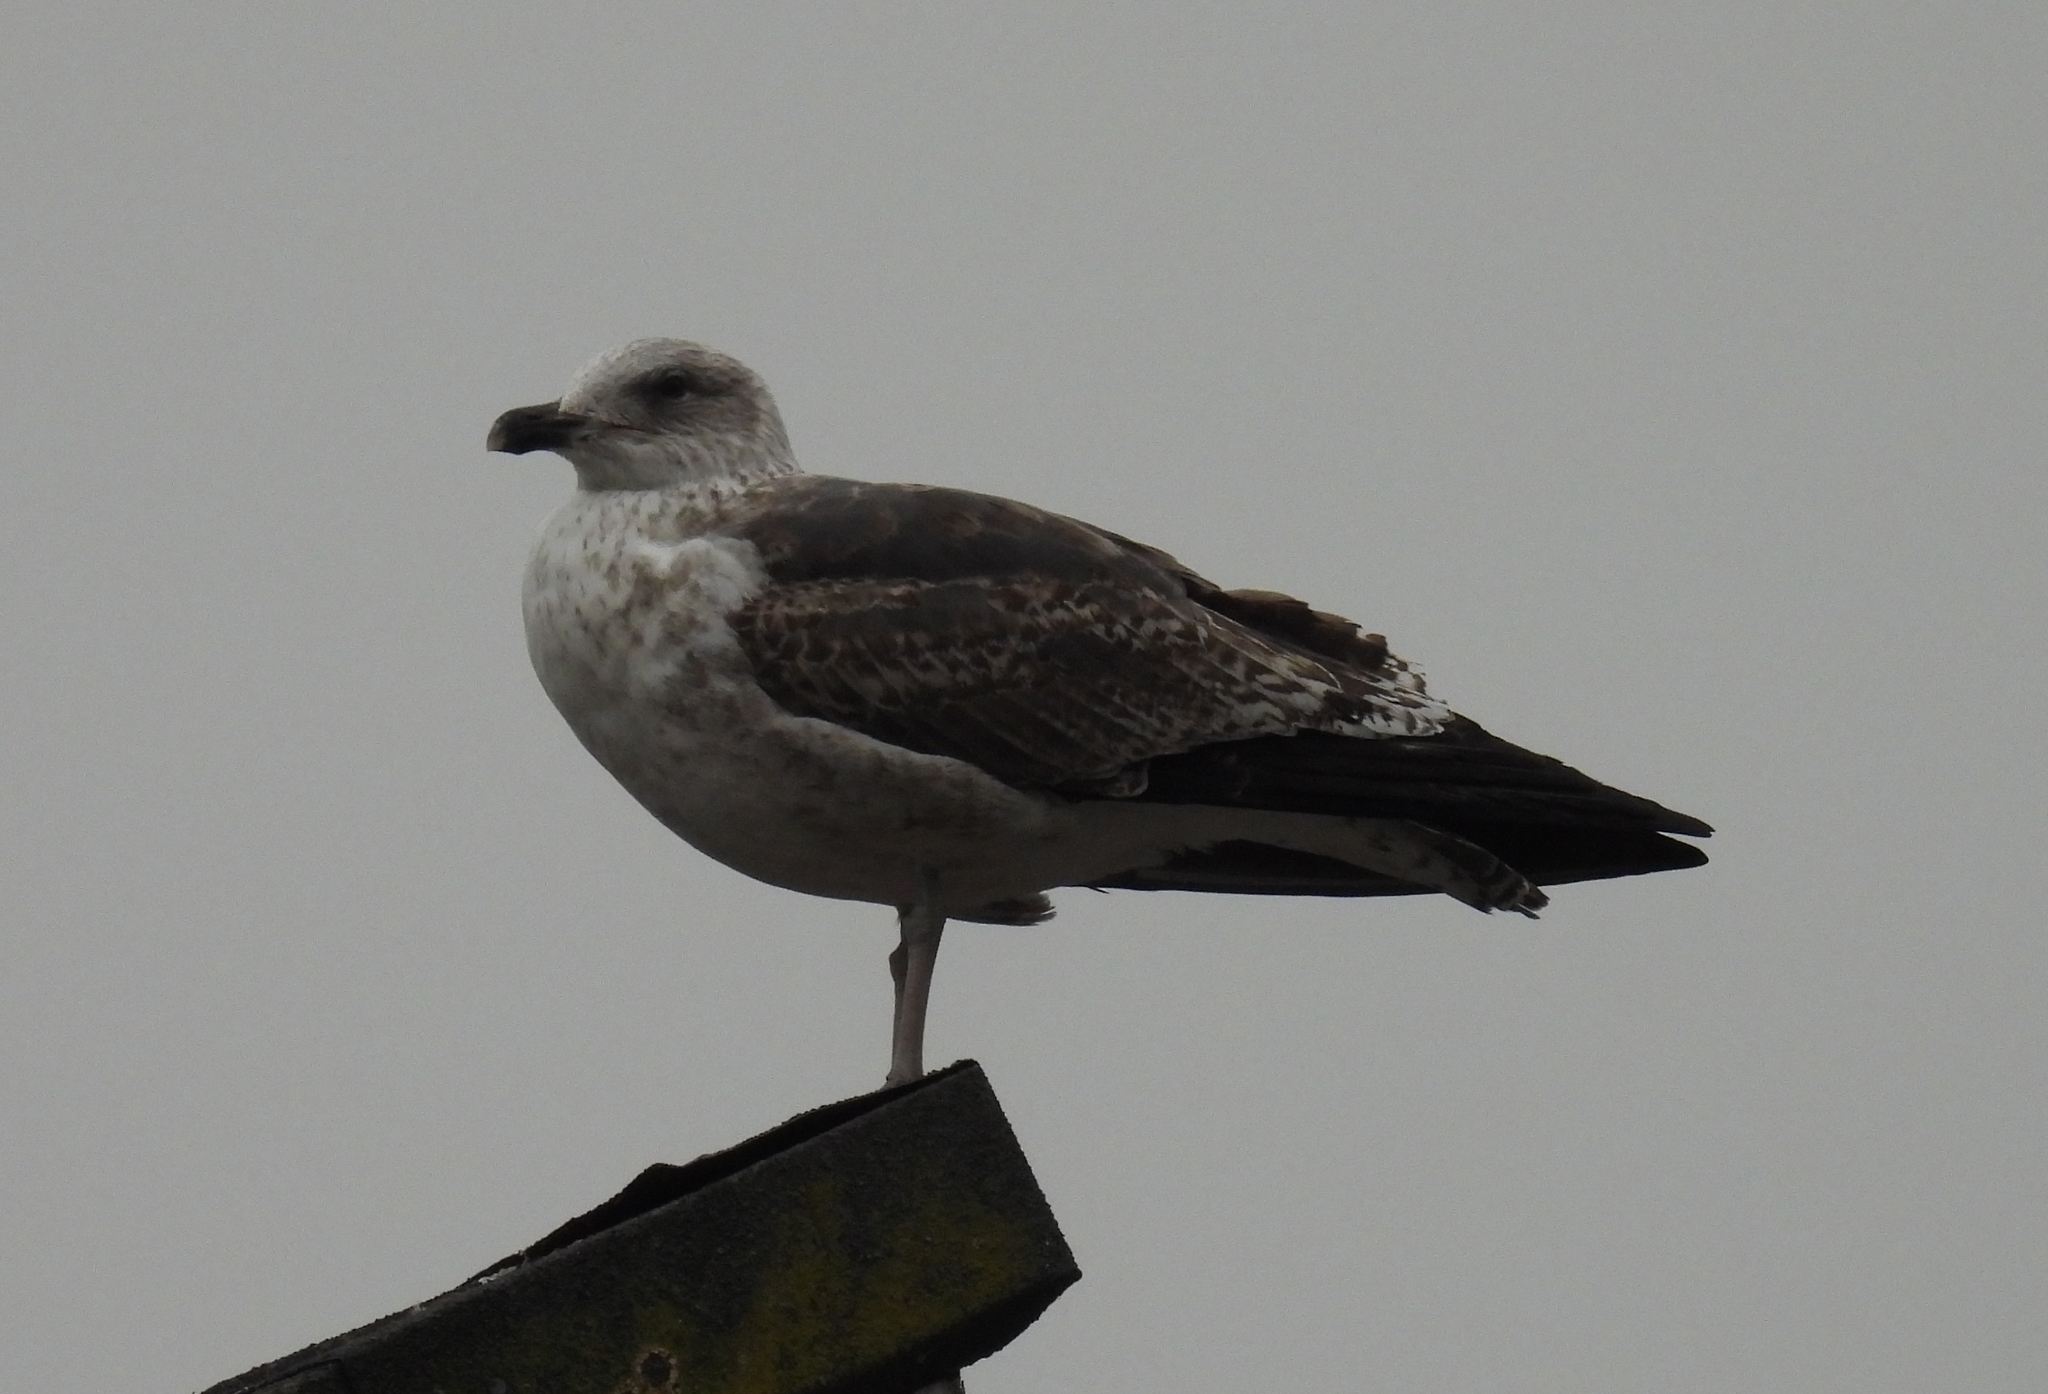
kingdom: Animalia
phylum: Chordata
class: Aves
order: Charadriiformes
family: Laridae
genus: Larus
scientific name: Larus fuscus
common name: Lesser black-backed gull
